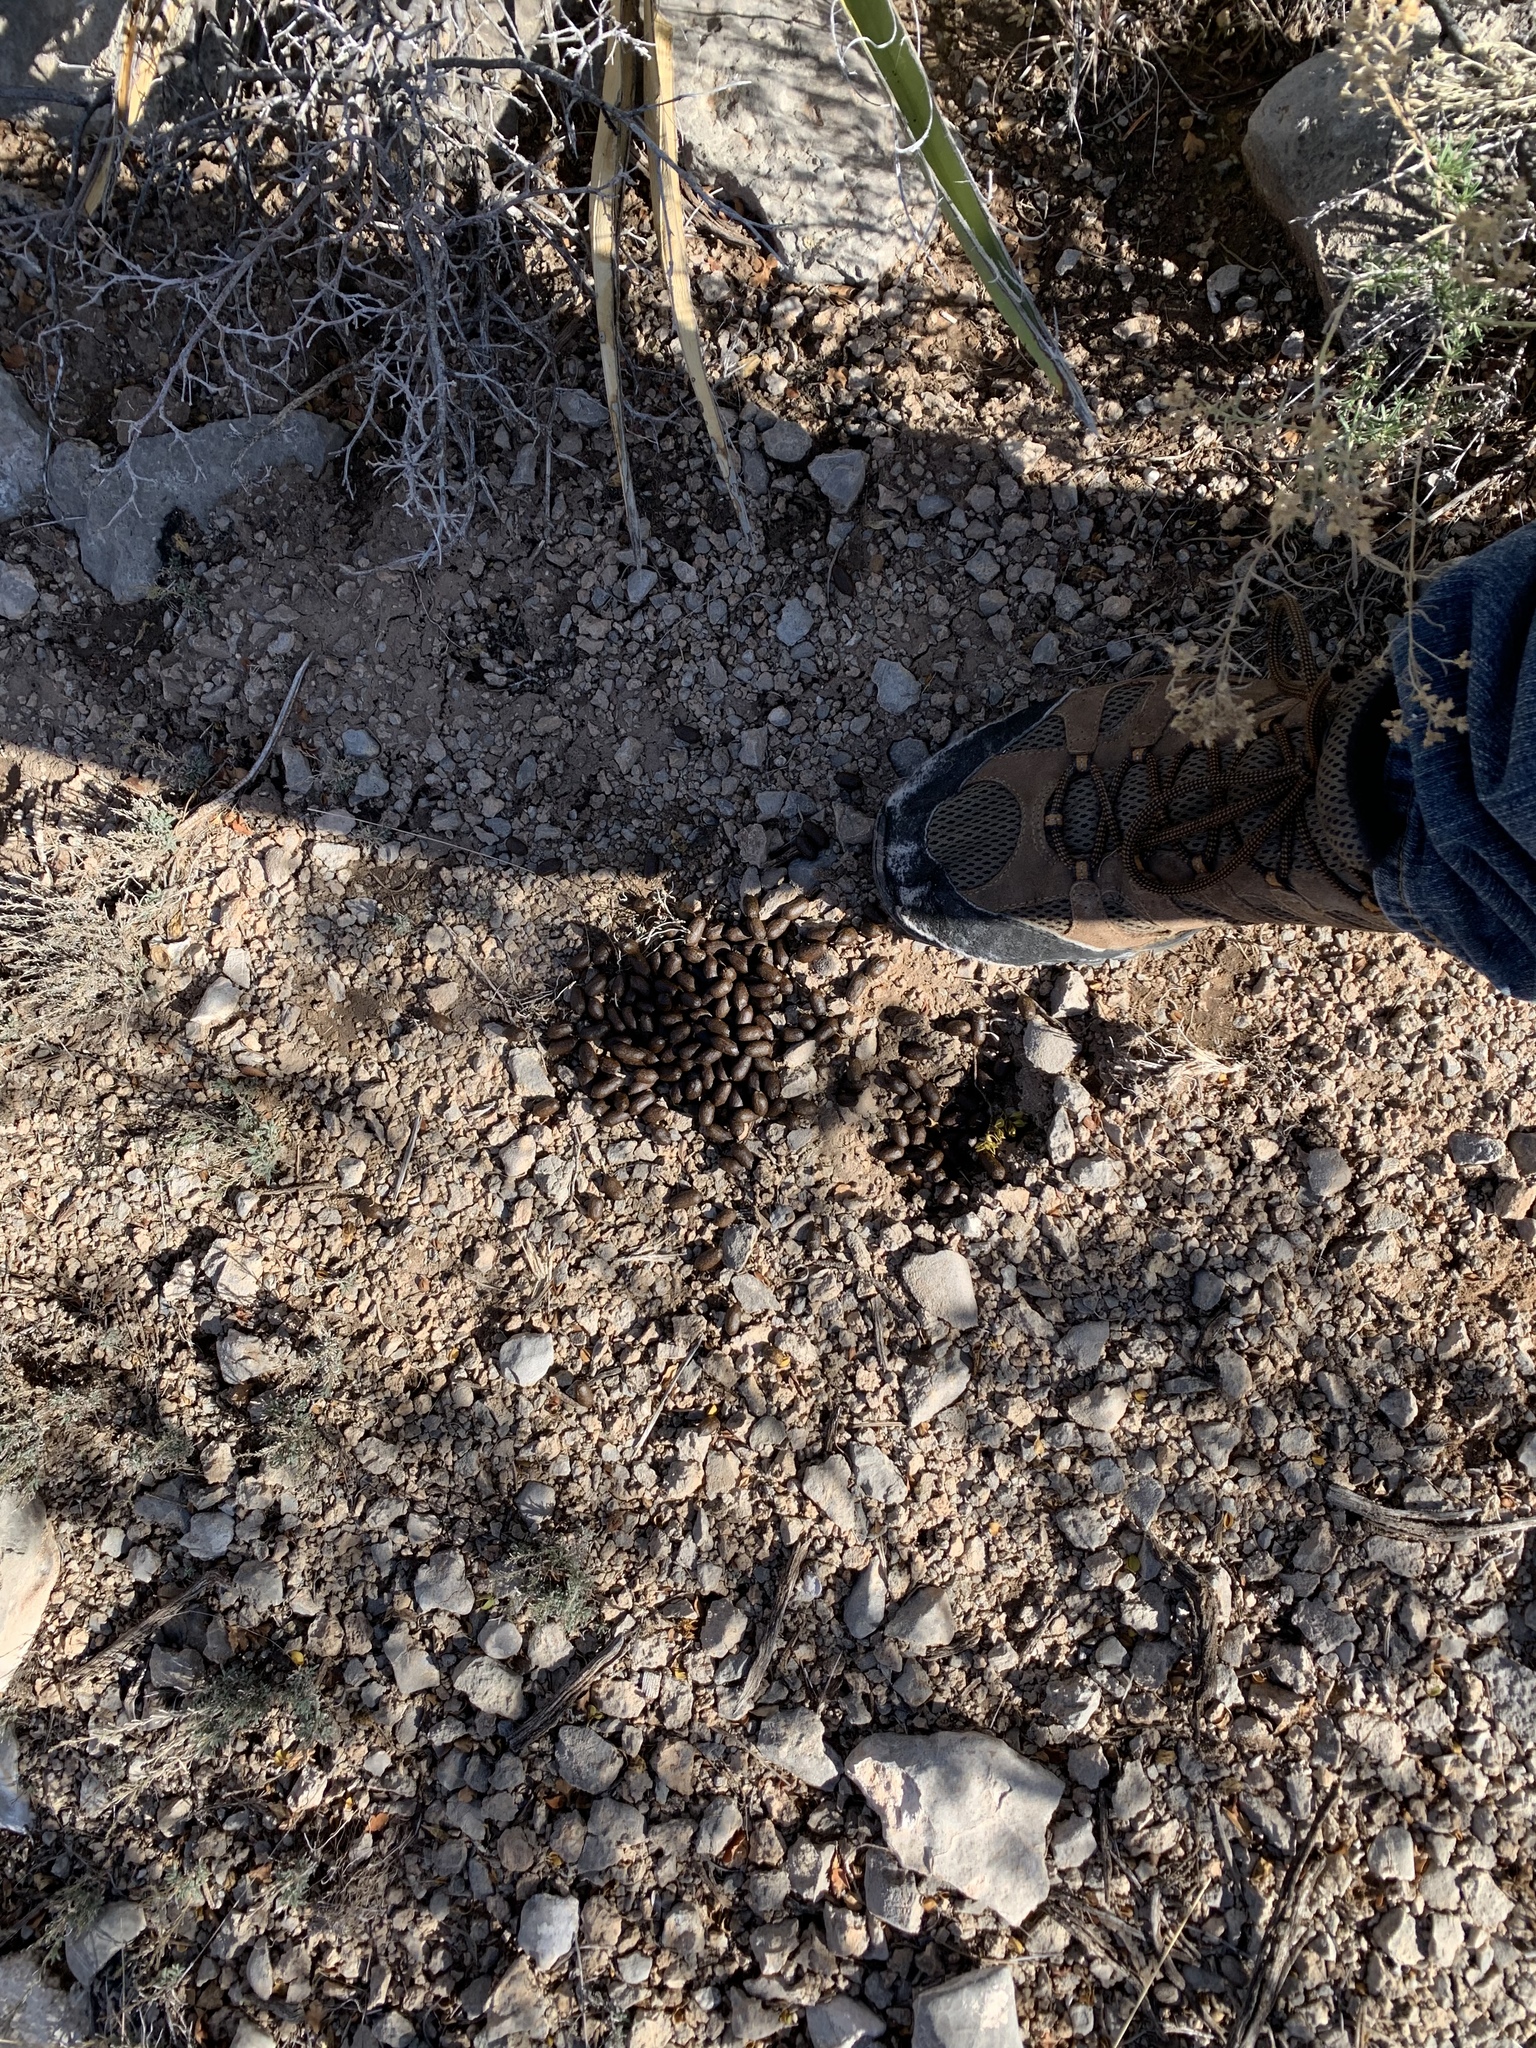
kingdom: Animalia
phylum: Chordata
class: Mammalia
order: Artiodactyla
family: Cervidae
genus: Odocoileus
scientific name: Odocoileus hemionus
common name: Mule deer
